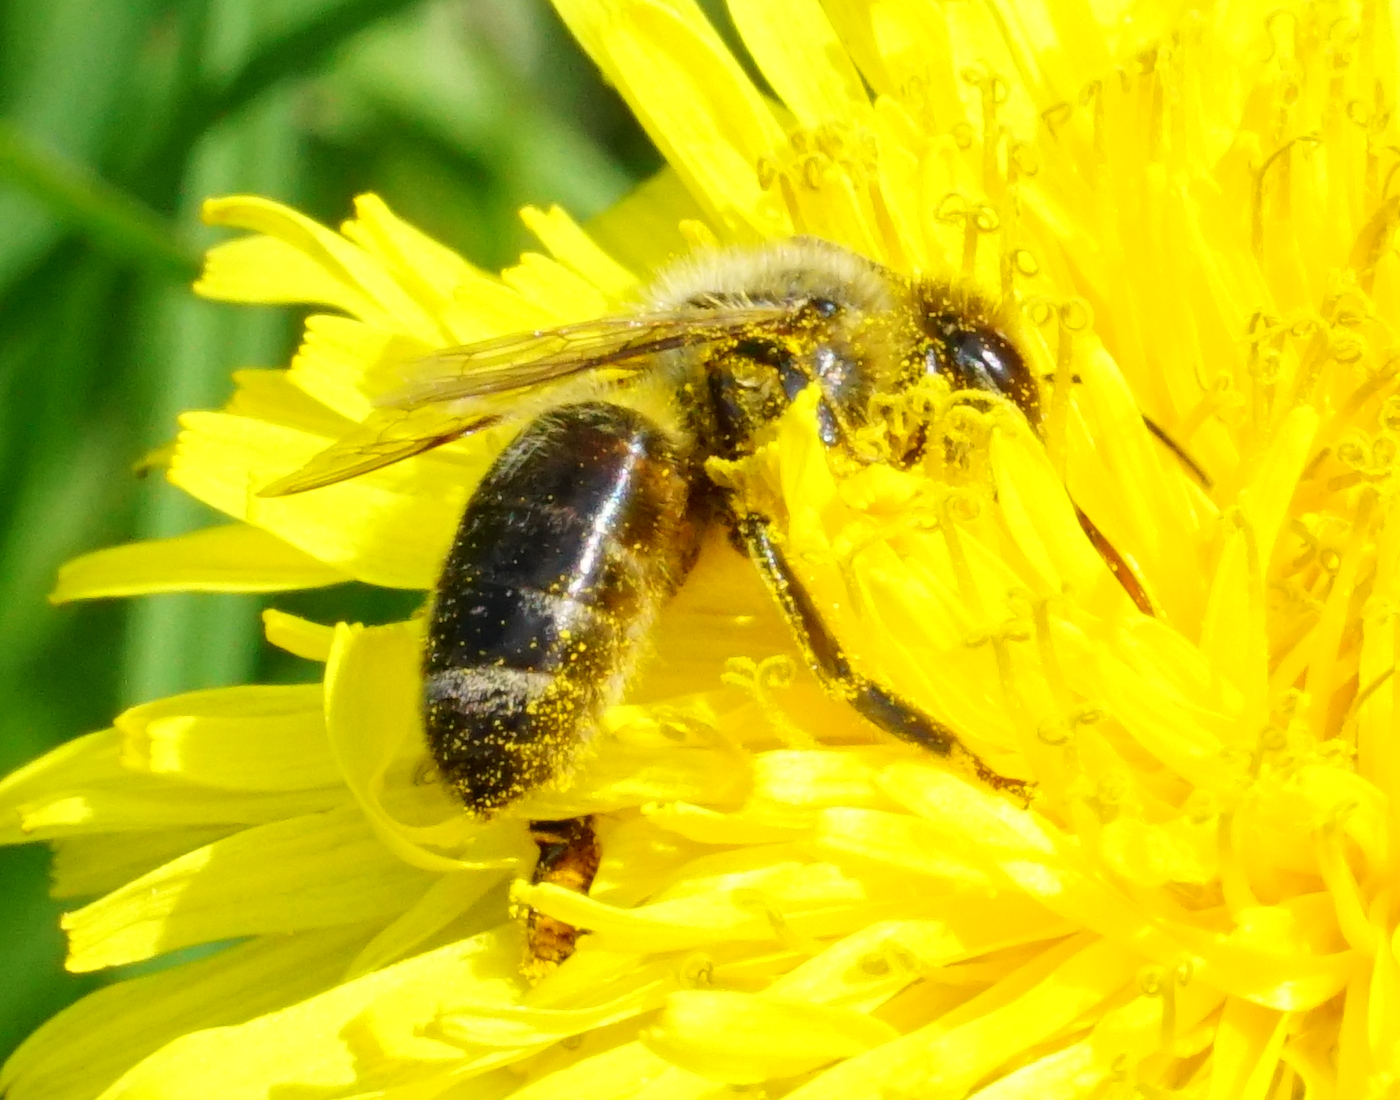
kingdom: Animalia
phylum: Arthropoda
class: Insecta
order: Hymenoptera
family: Apidae
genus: Apis
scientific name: Apis mellifera
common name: Honey bee
